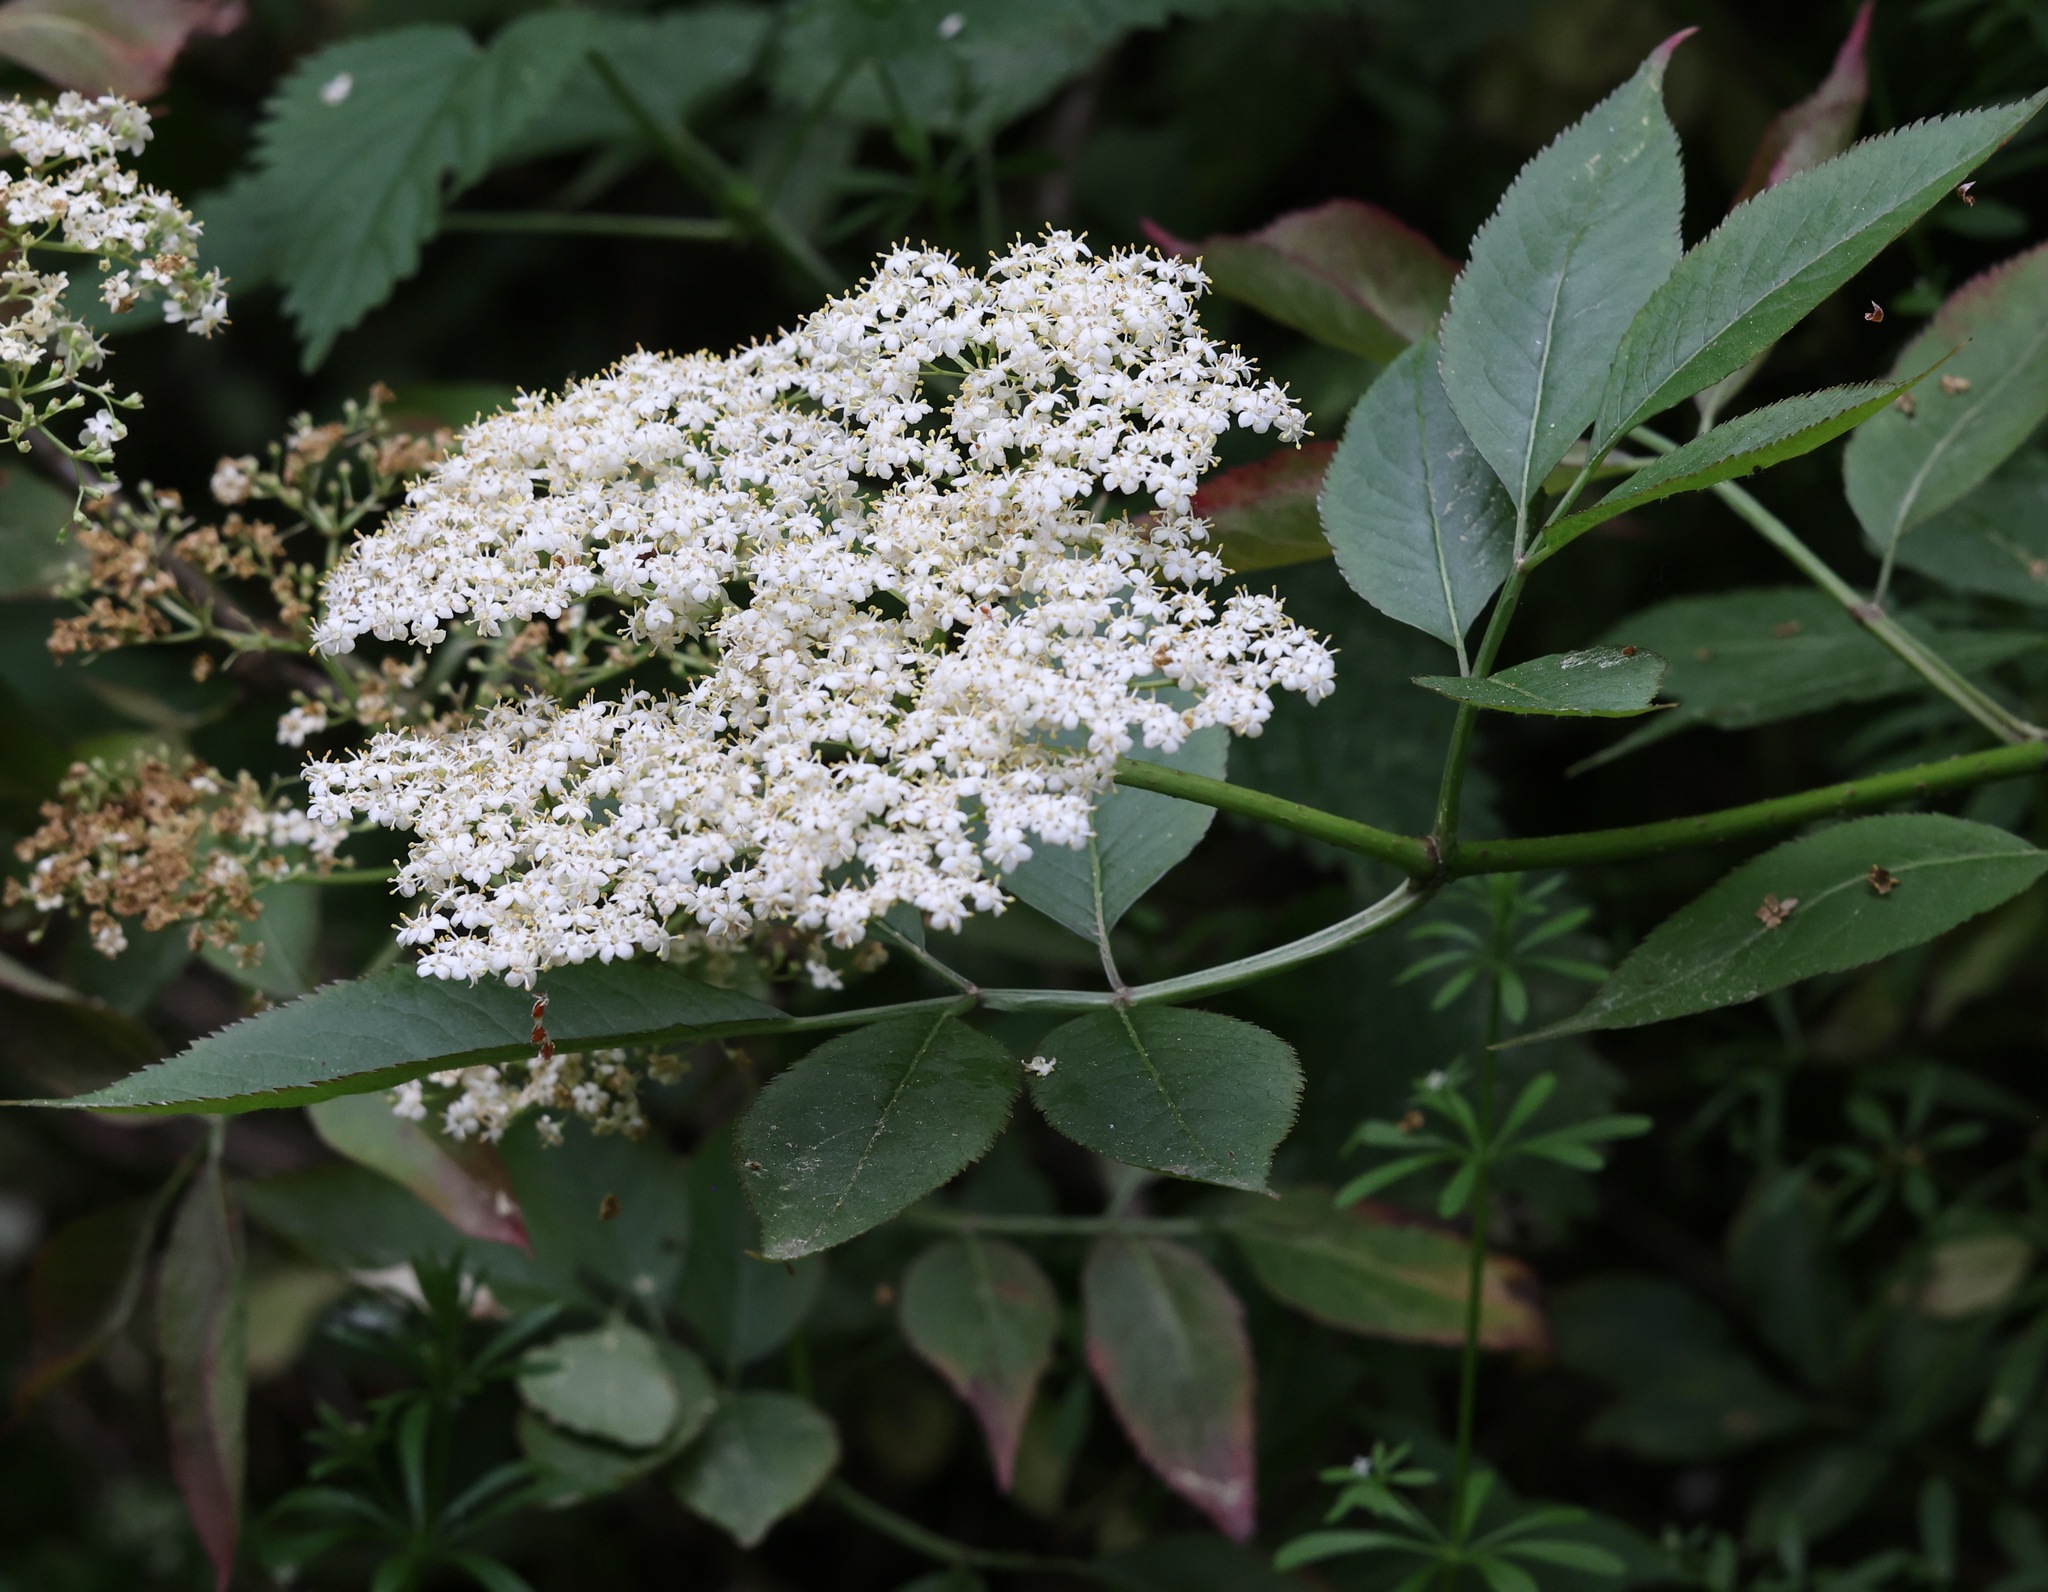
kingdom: Plantae
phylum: Tracheophyta
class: Magnoliopsida
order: Dipsacales
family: Viburnaceae
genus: Sambucus
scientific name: Sambucus nigra
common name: Elder
